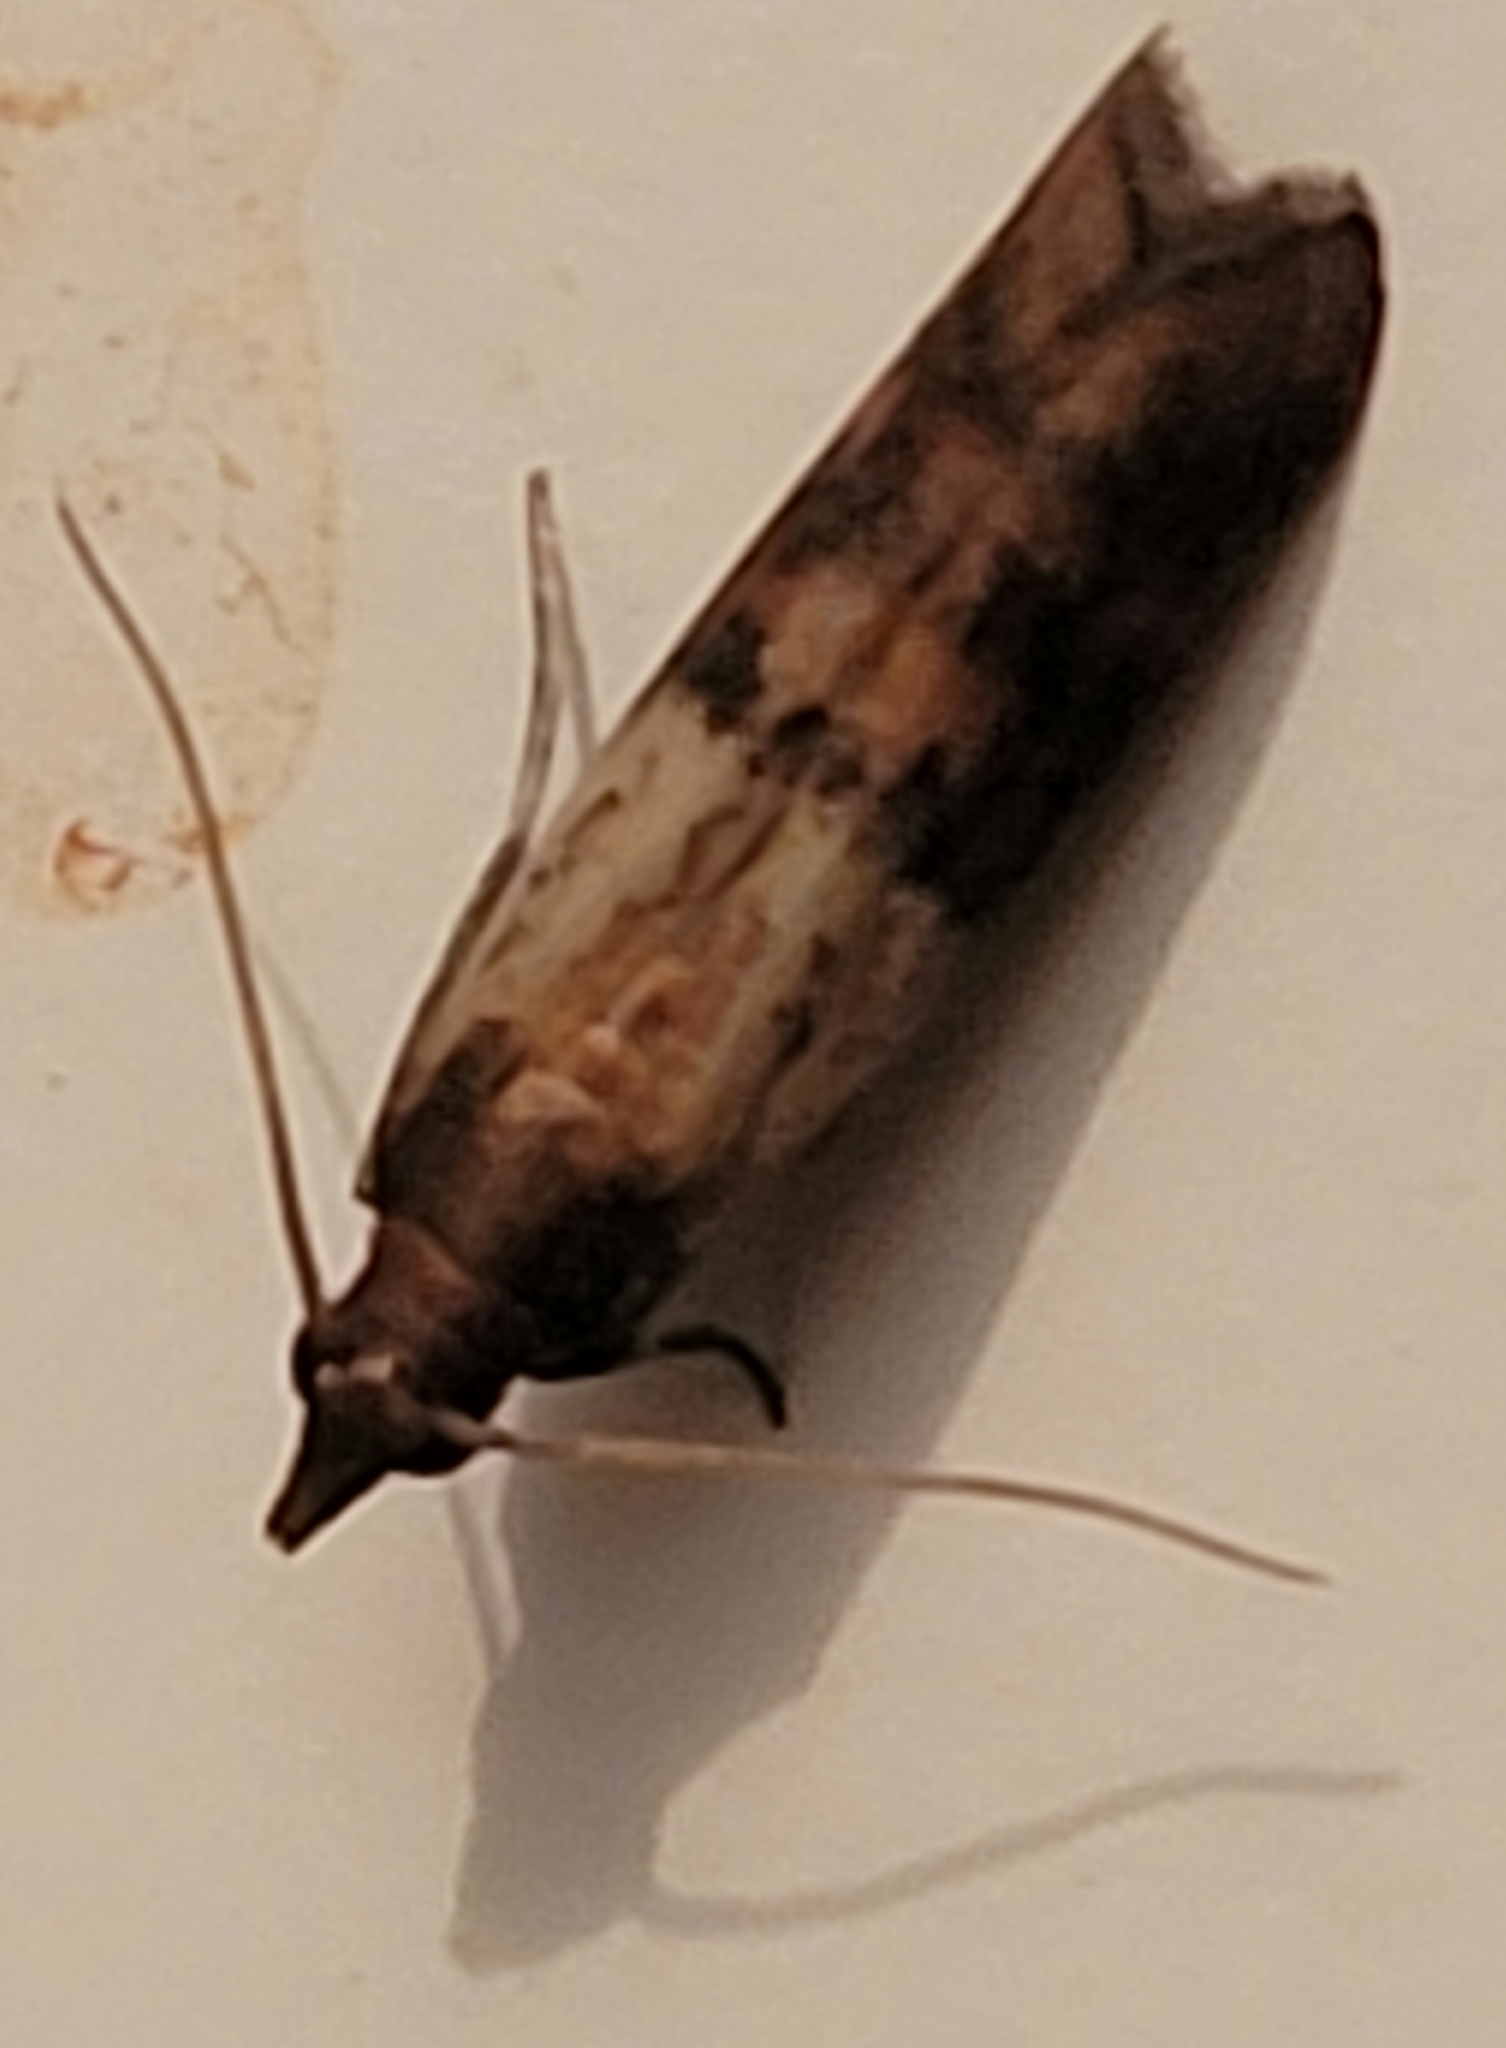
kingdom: Animalia
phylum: Arthropoda
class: Insecta
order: Lepidoptera
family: Pyralidae
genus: Plodia
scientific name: Plodia interpunctella
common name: Indian meal moth
